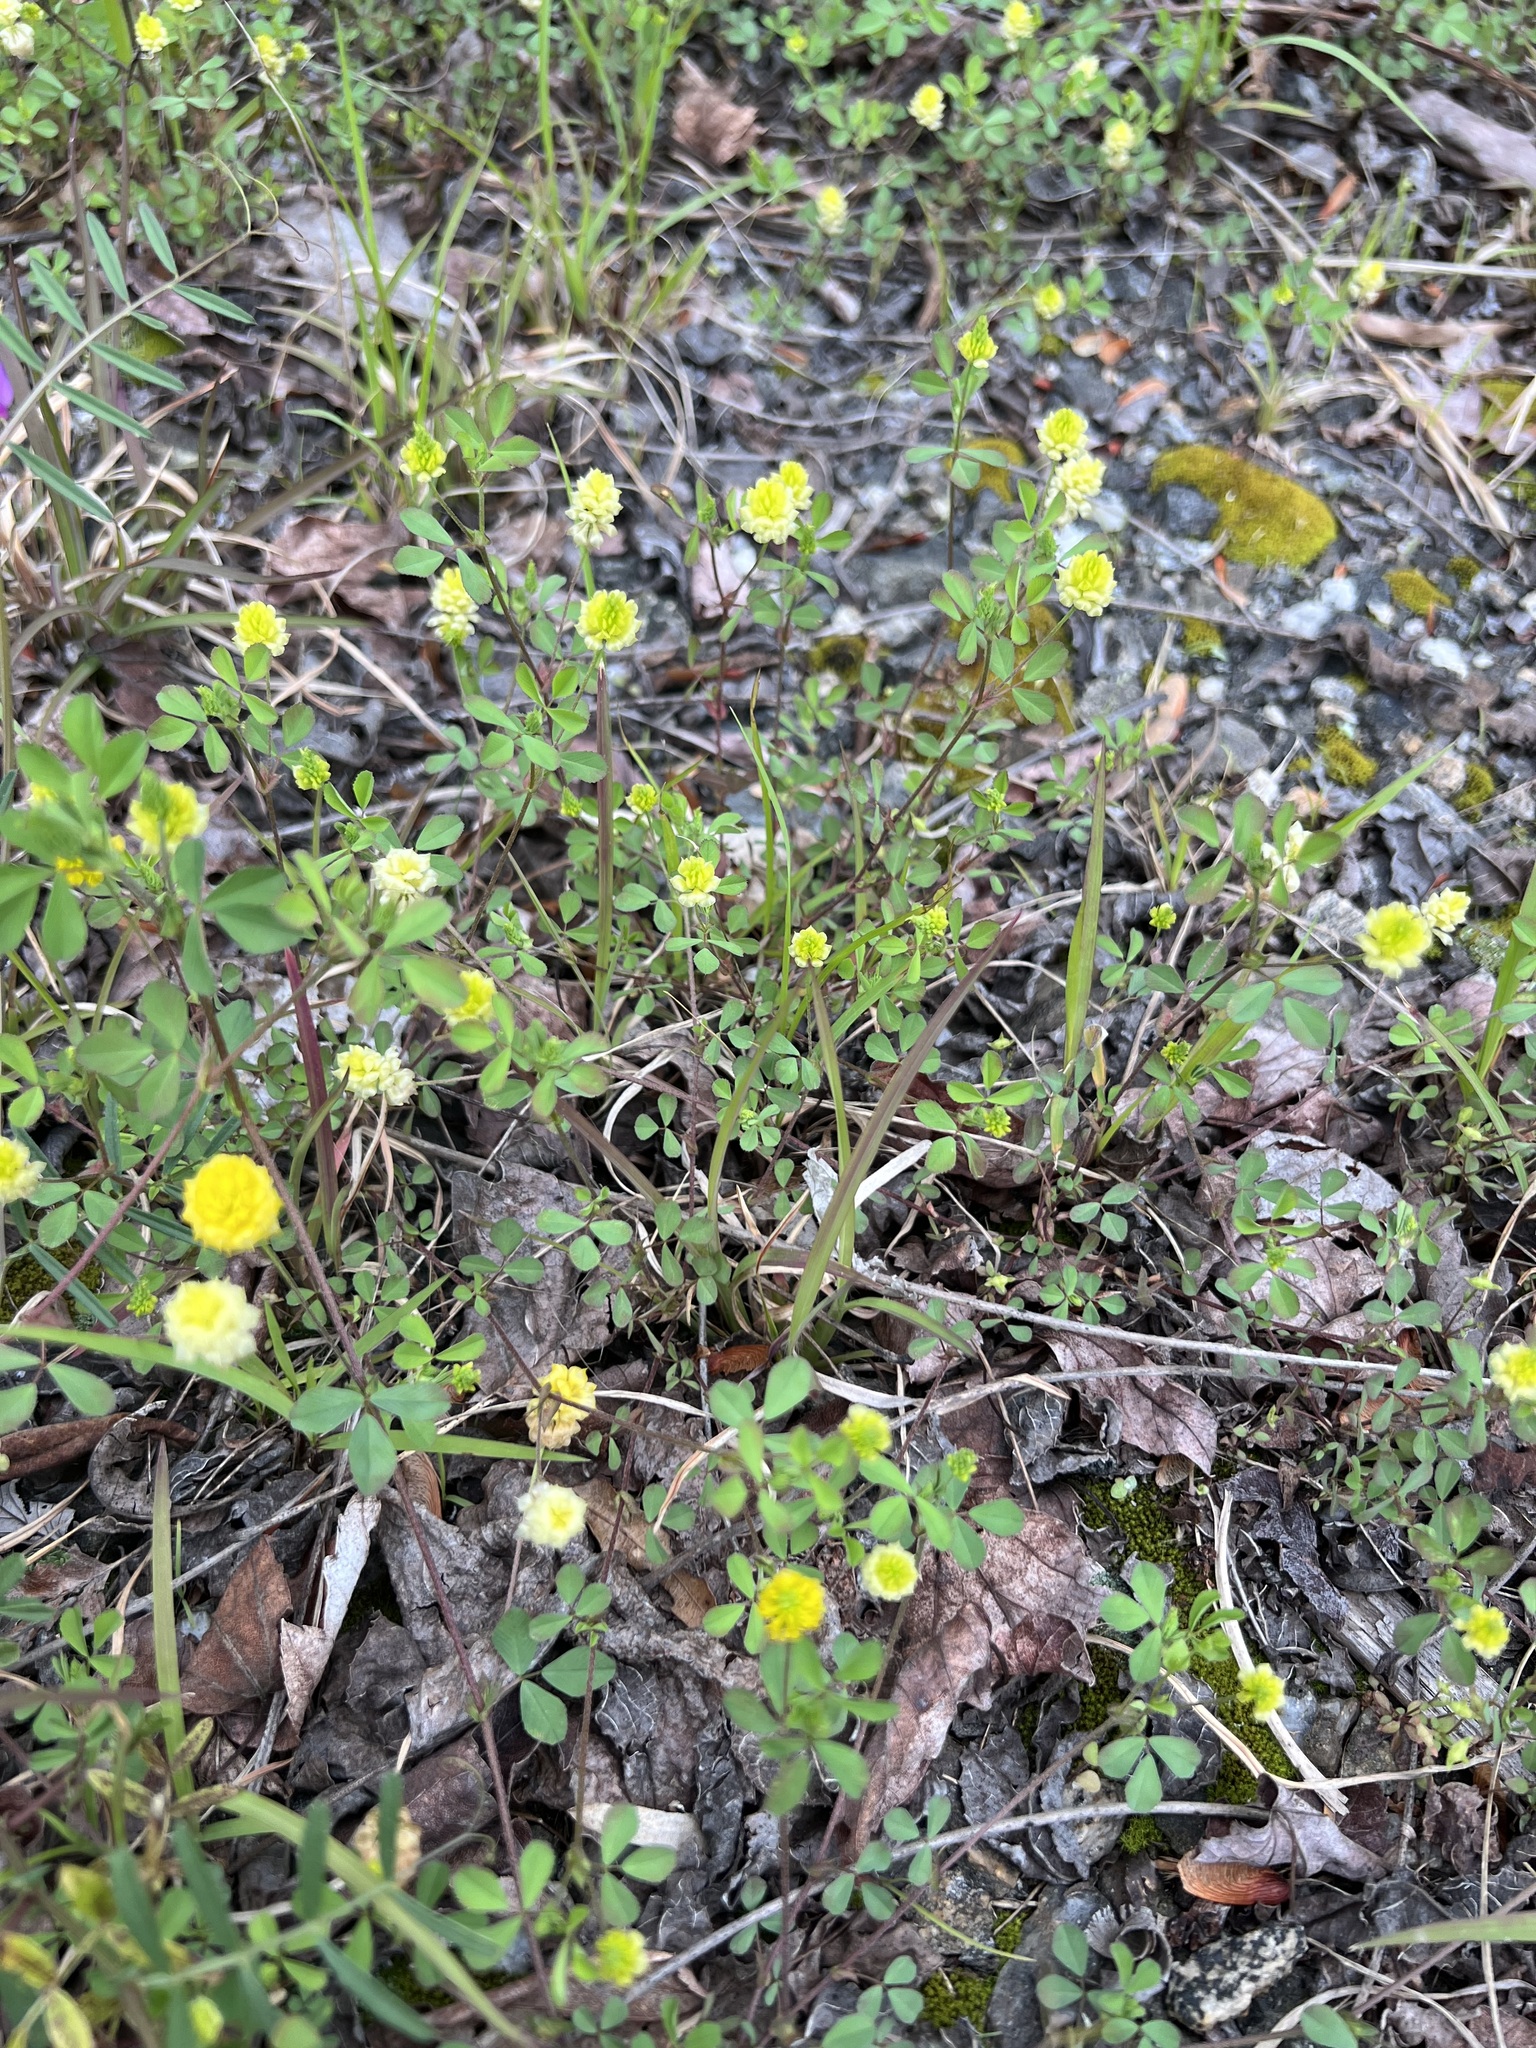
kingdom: Plantae
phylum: Tracheophyta
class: Magnoliopsida
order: Fabales
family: Fabaceae
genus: Trifolium
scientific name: Trifolium campestre
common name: Field clover
